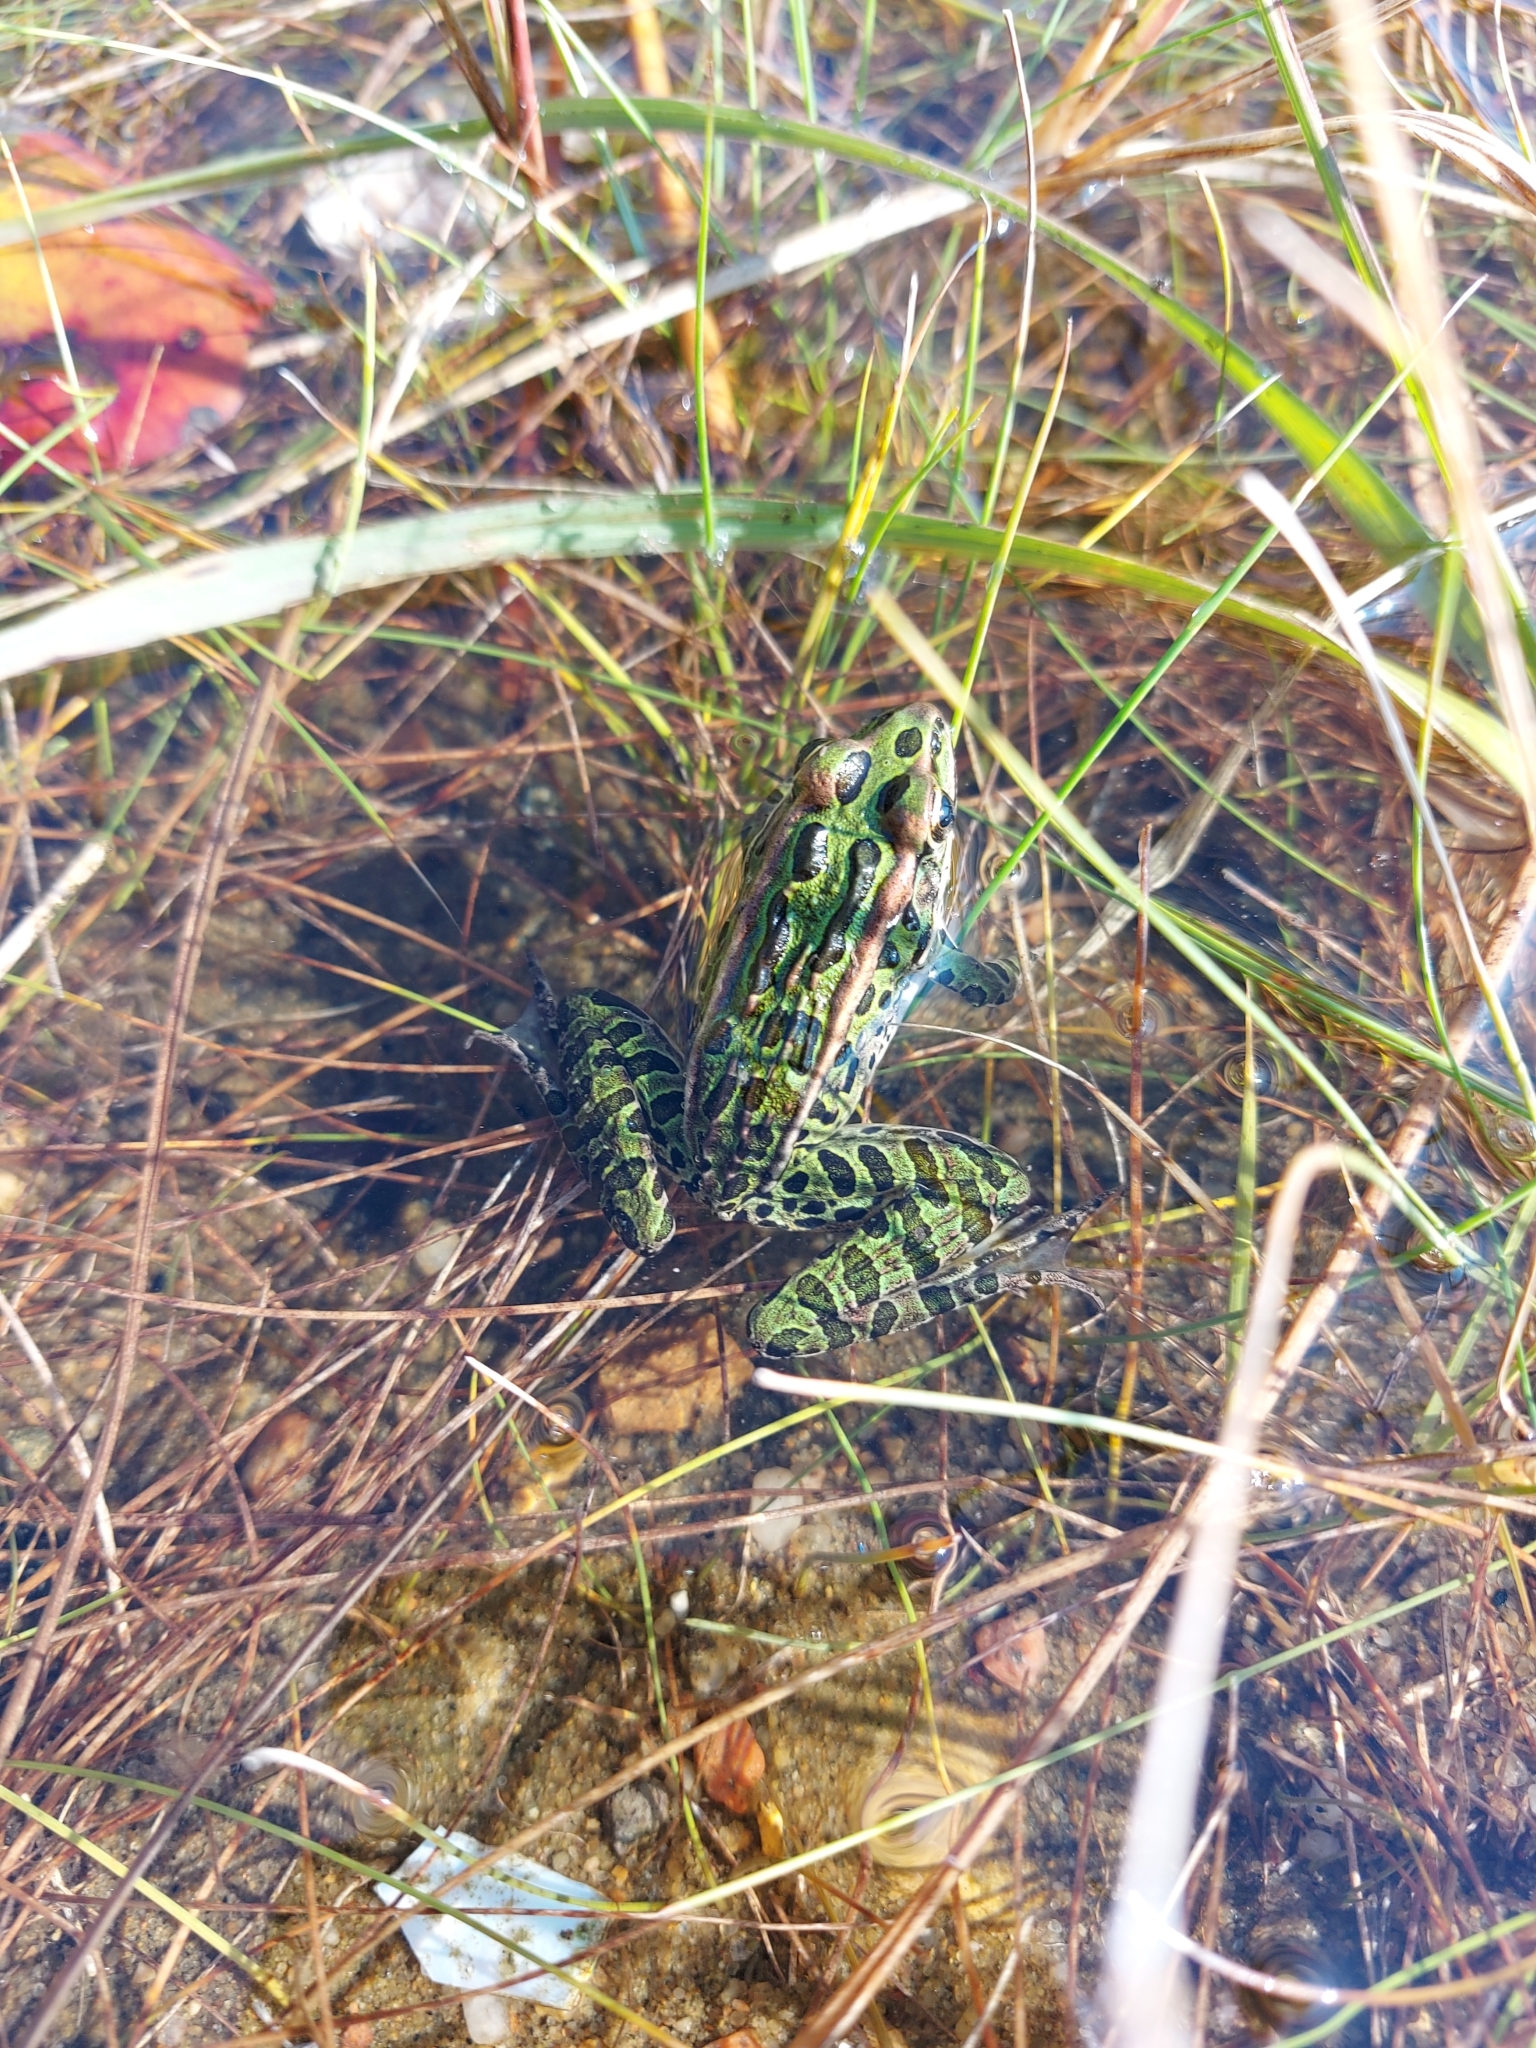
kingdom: Animalia
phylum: Chordata
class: Amphibia
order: Anura
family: Ranidae
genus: Lithobates
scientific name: Lithobates pipiens
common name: Northern leopard frog
